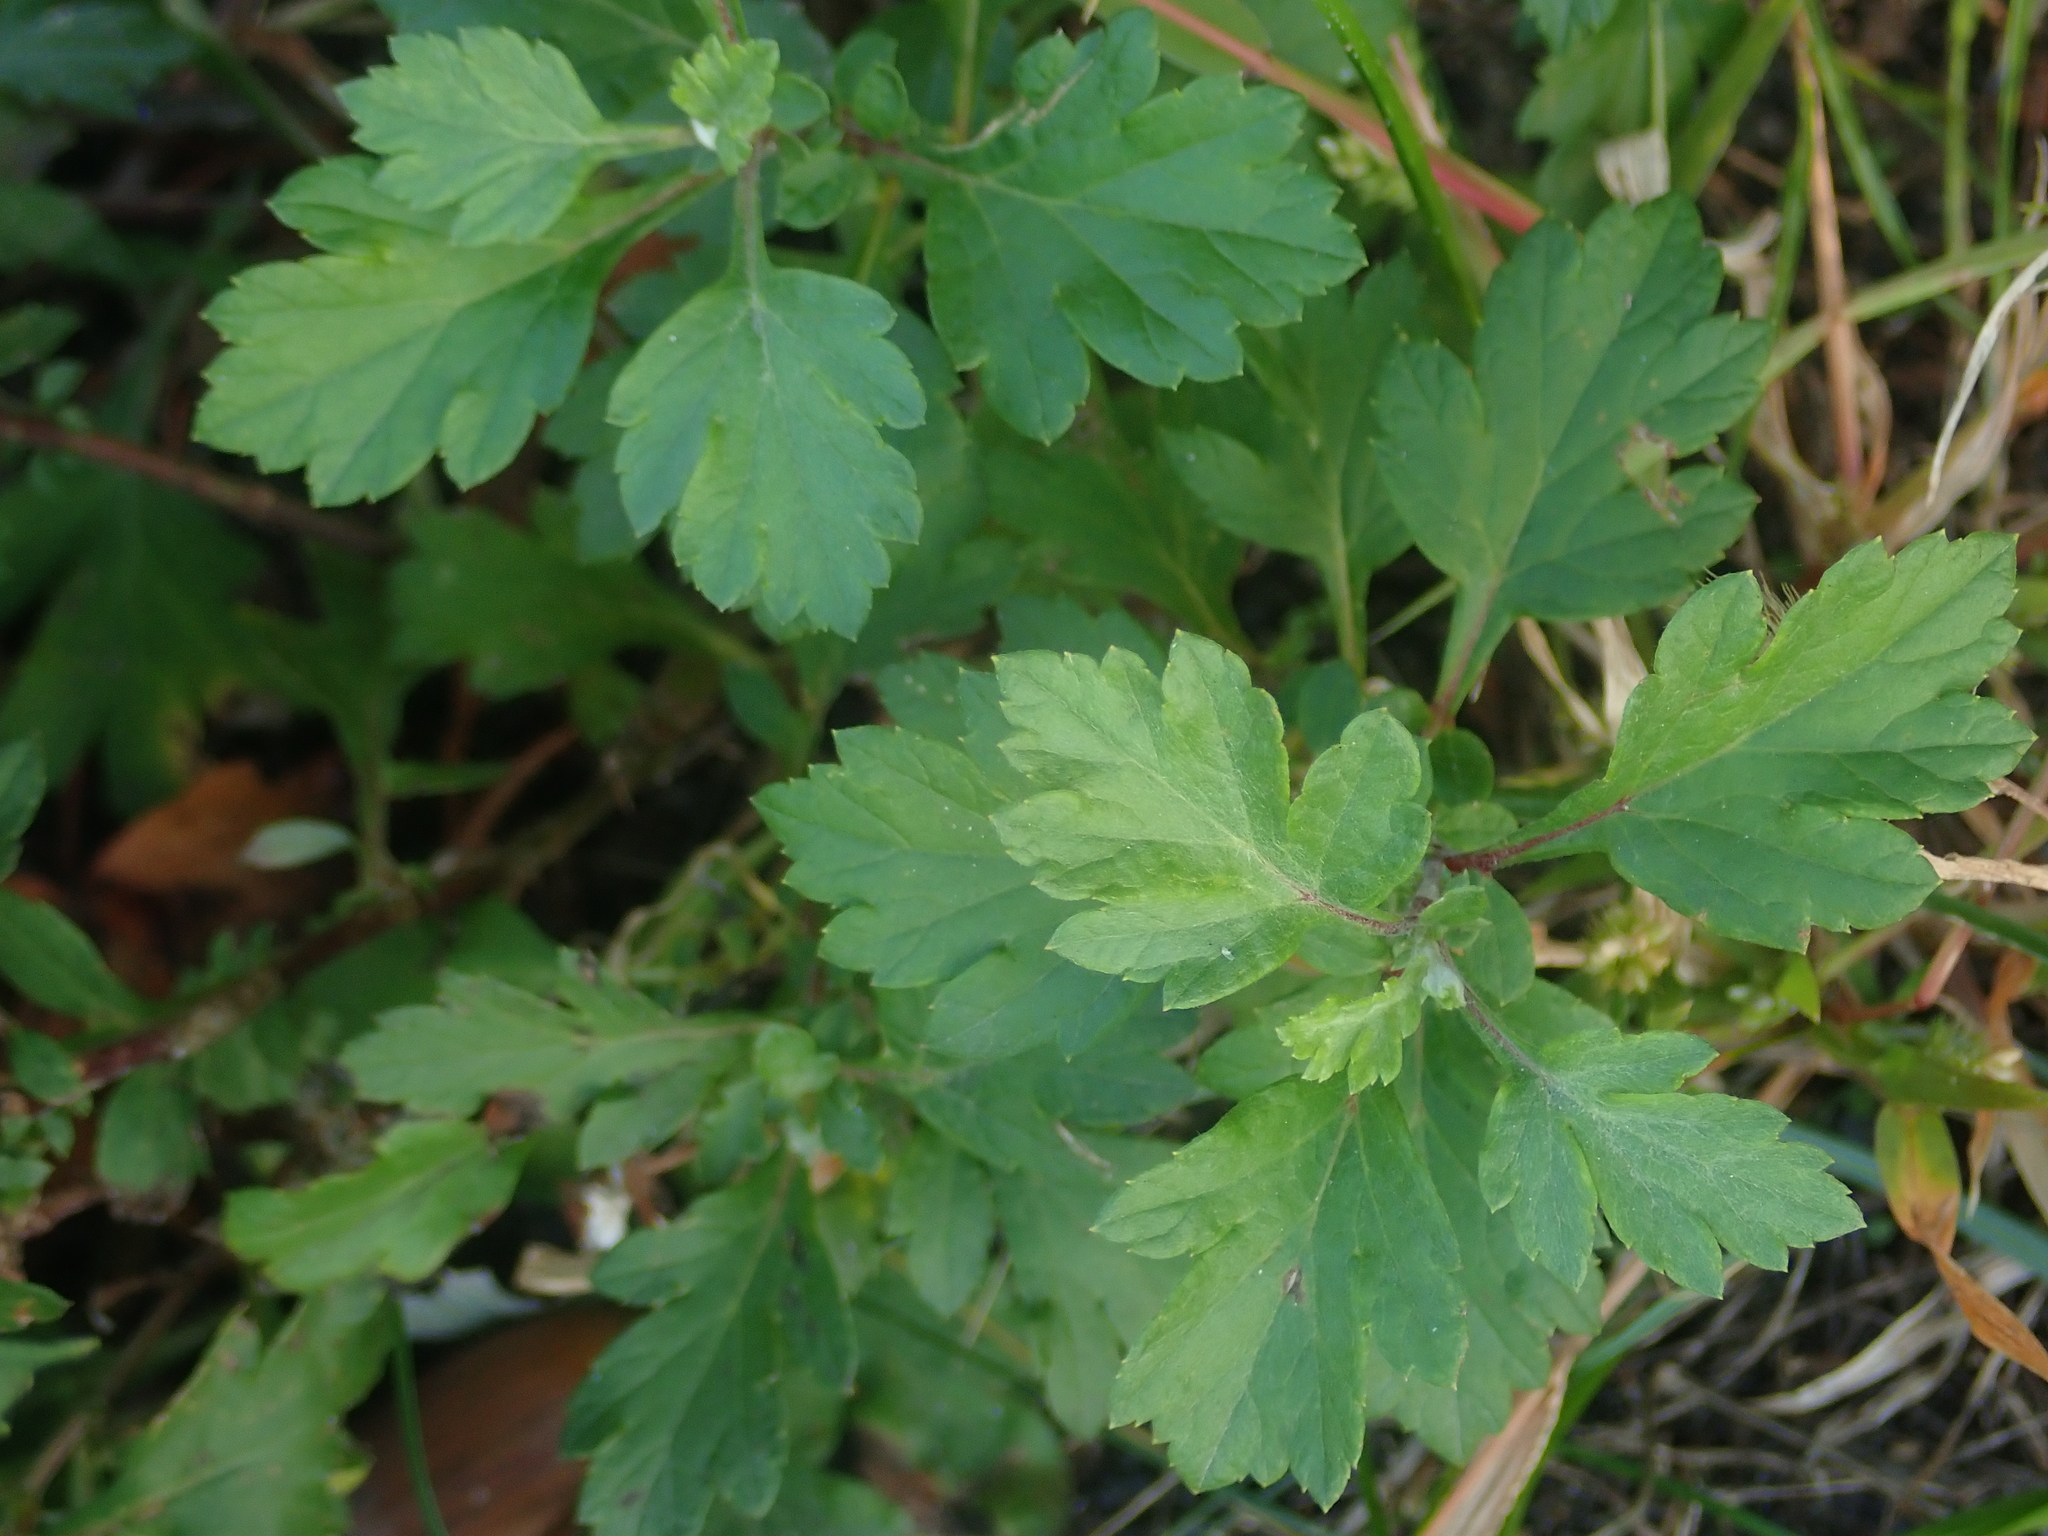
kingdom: Plantae
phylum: Tracheophyta
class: Magnoliopsida
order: Asterales
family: Asteraceae
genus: Artemisia
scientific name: Artemisia vulgaris
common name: Mugwort
